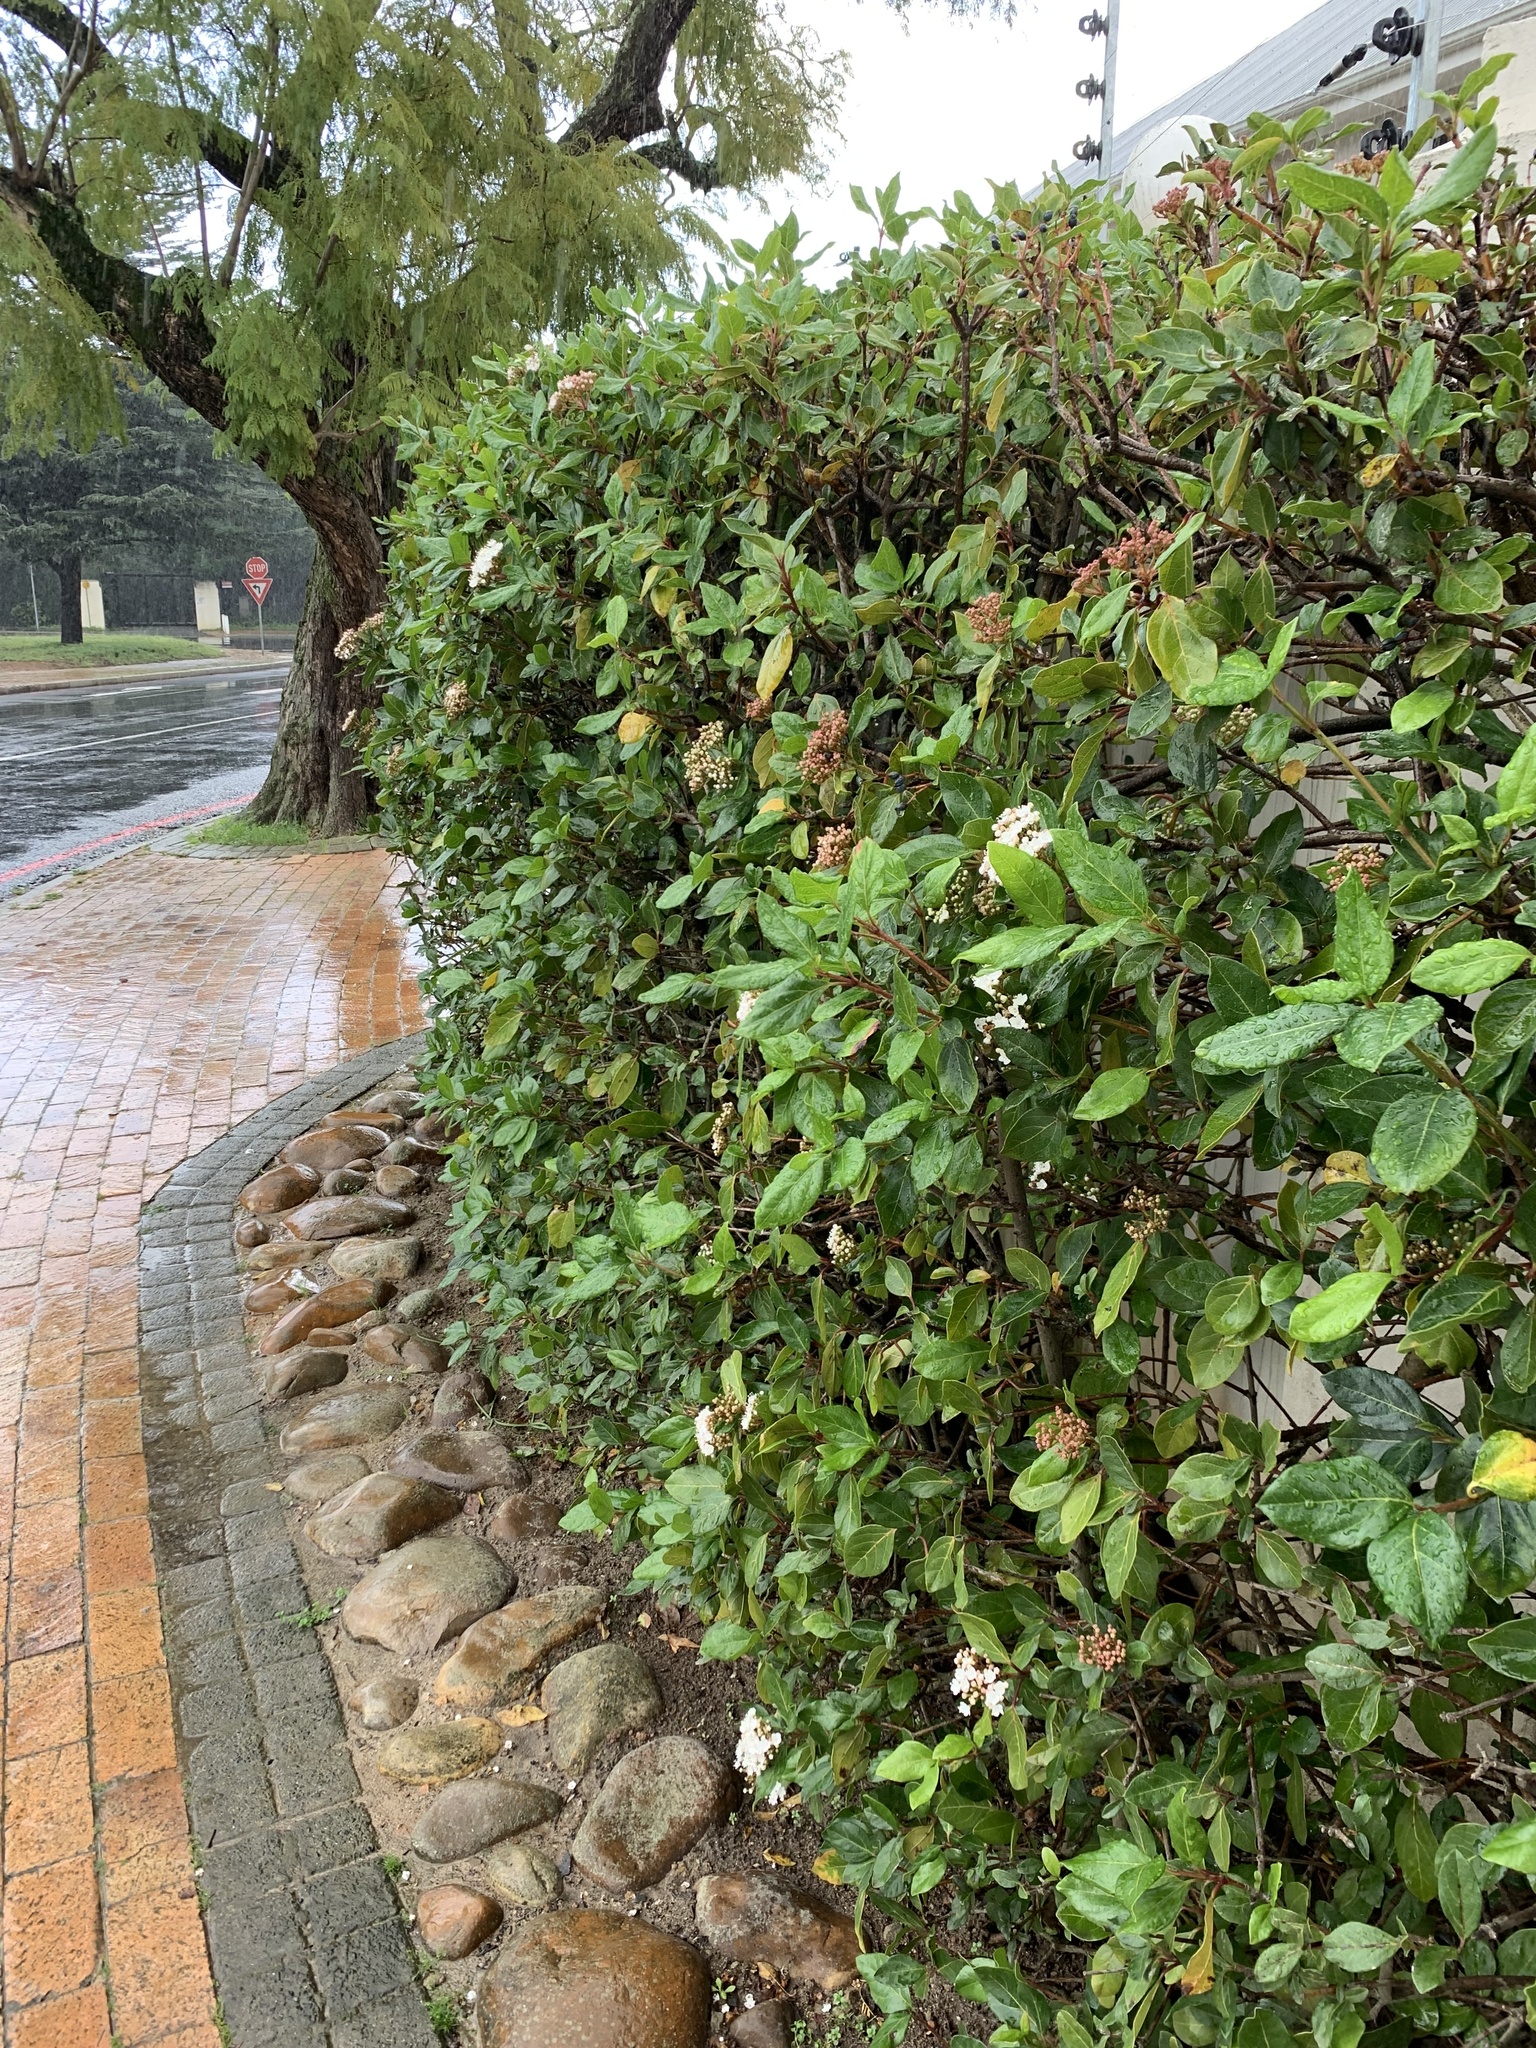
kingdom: Plantae
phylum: Tracheophyta
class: Magnoliopsida
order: Dipsacales
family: Viburnaceae
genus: Viburnum
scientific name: Viburnum tinus
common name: Laurustinus
